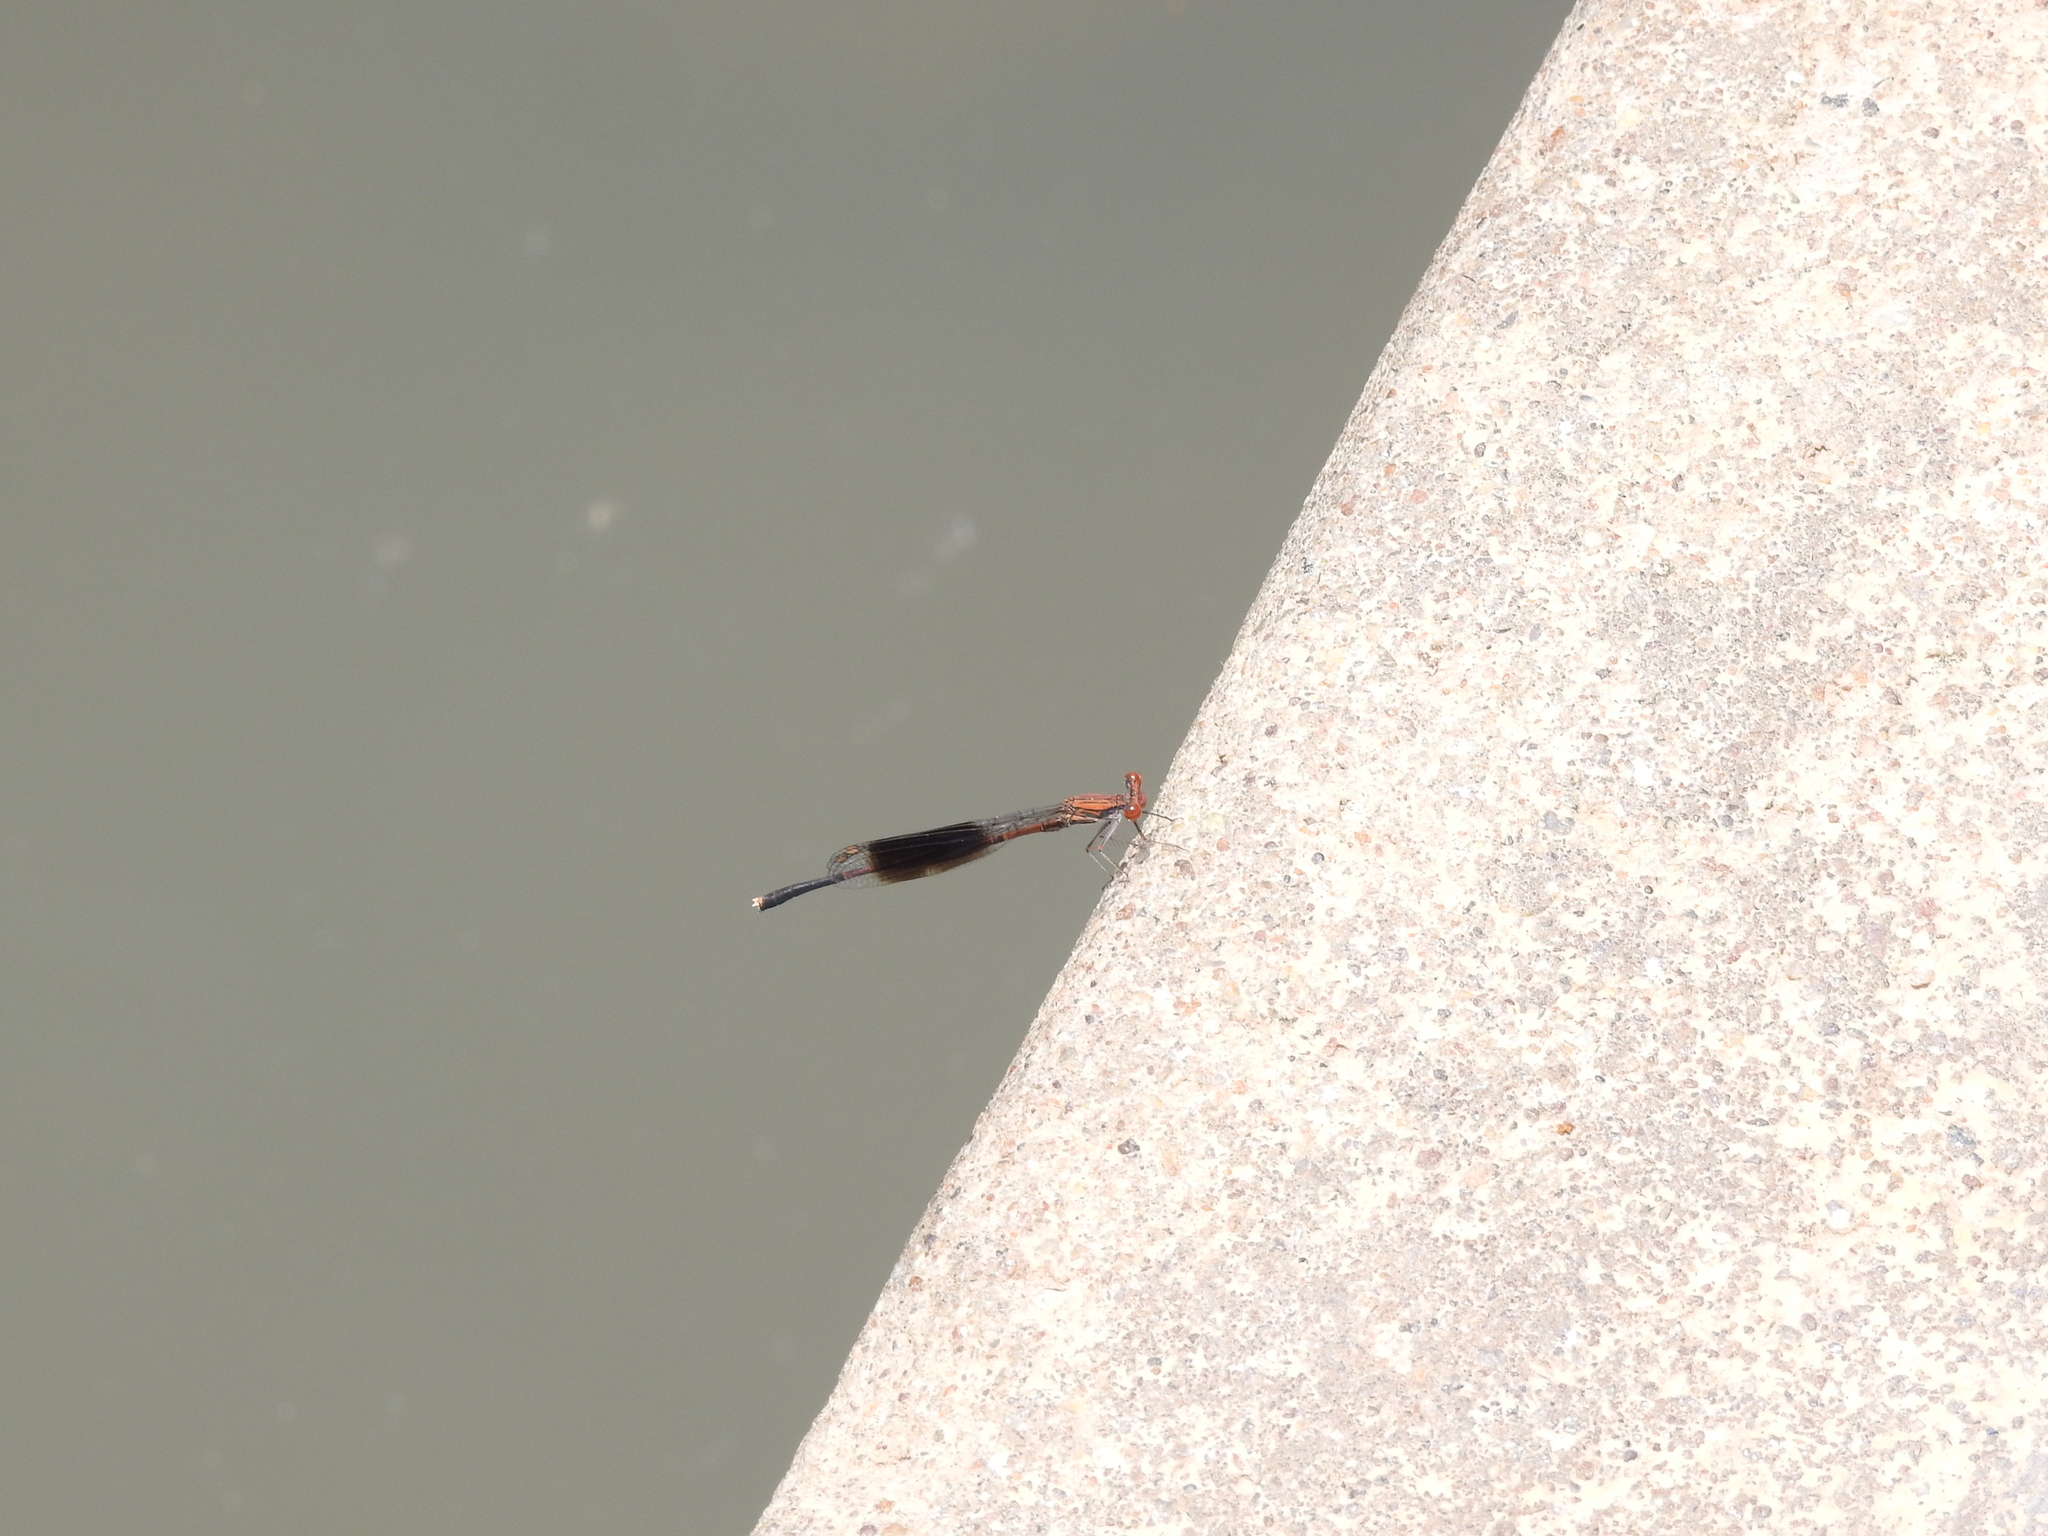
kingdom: Animalia
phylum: Arthropoda
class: Insecta
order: Odonata
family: Platycnemididae
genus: Disparoneura
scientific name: Disparoneura quadrimaculata
